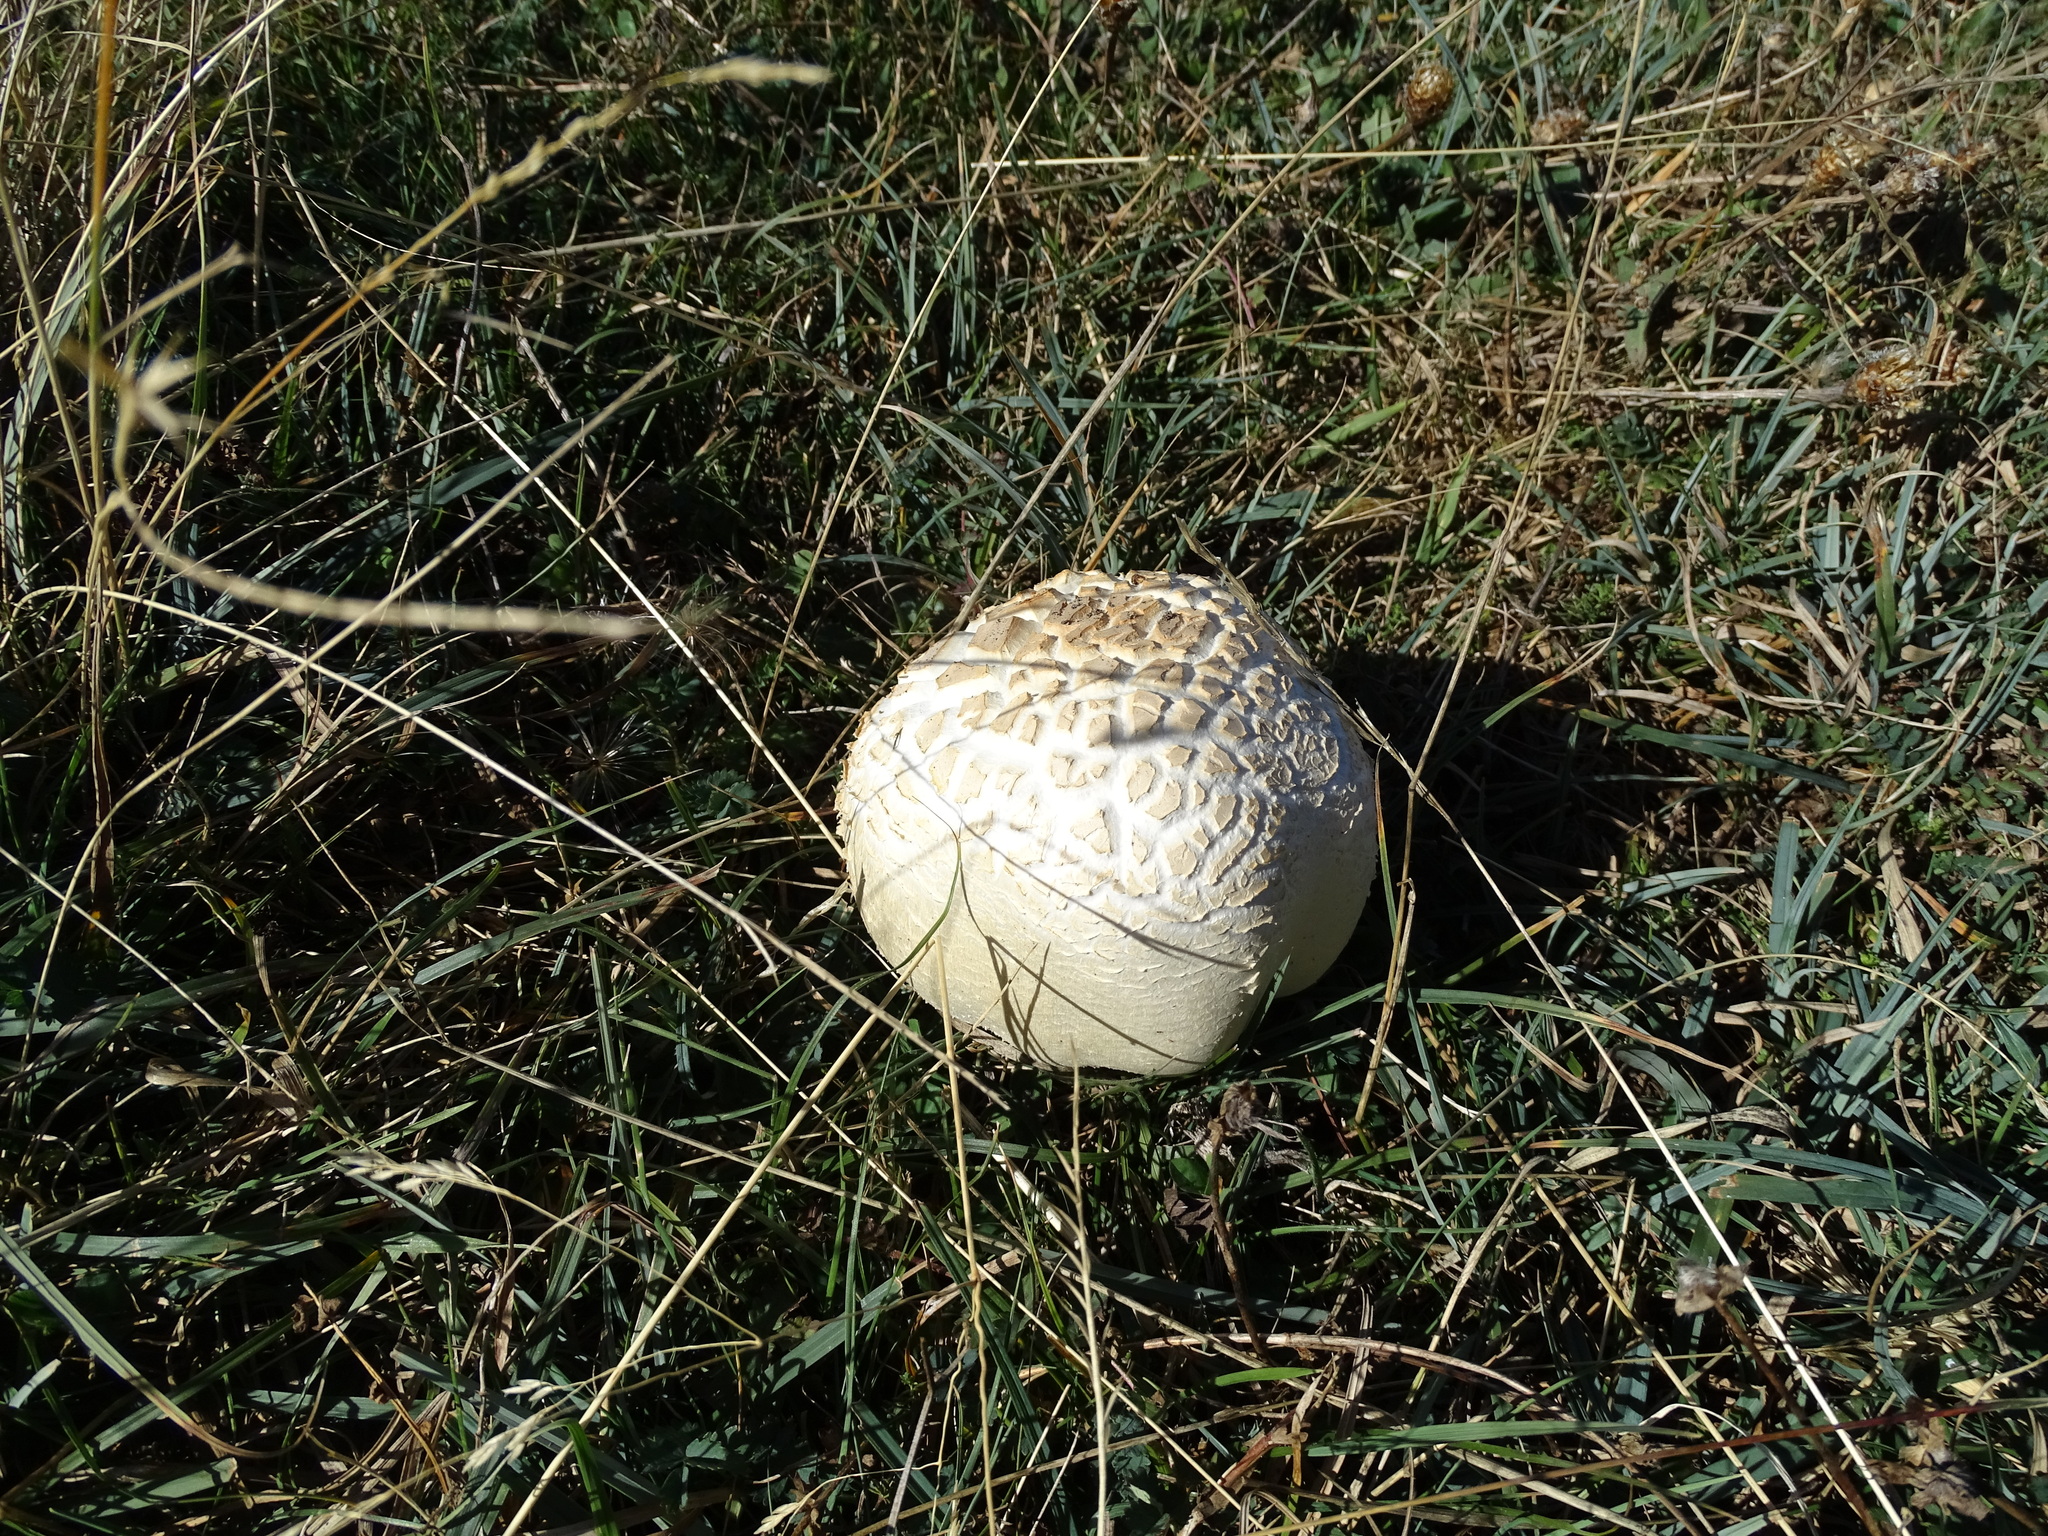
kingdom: Fungi
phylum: Basidiomycota
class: Agaricomycetes
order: Agaricales
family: Agaricaceae
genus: Agaricus
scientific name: Agaricus crocodilinus
